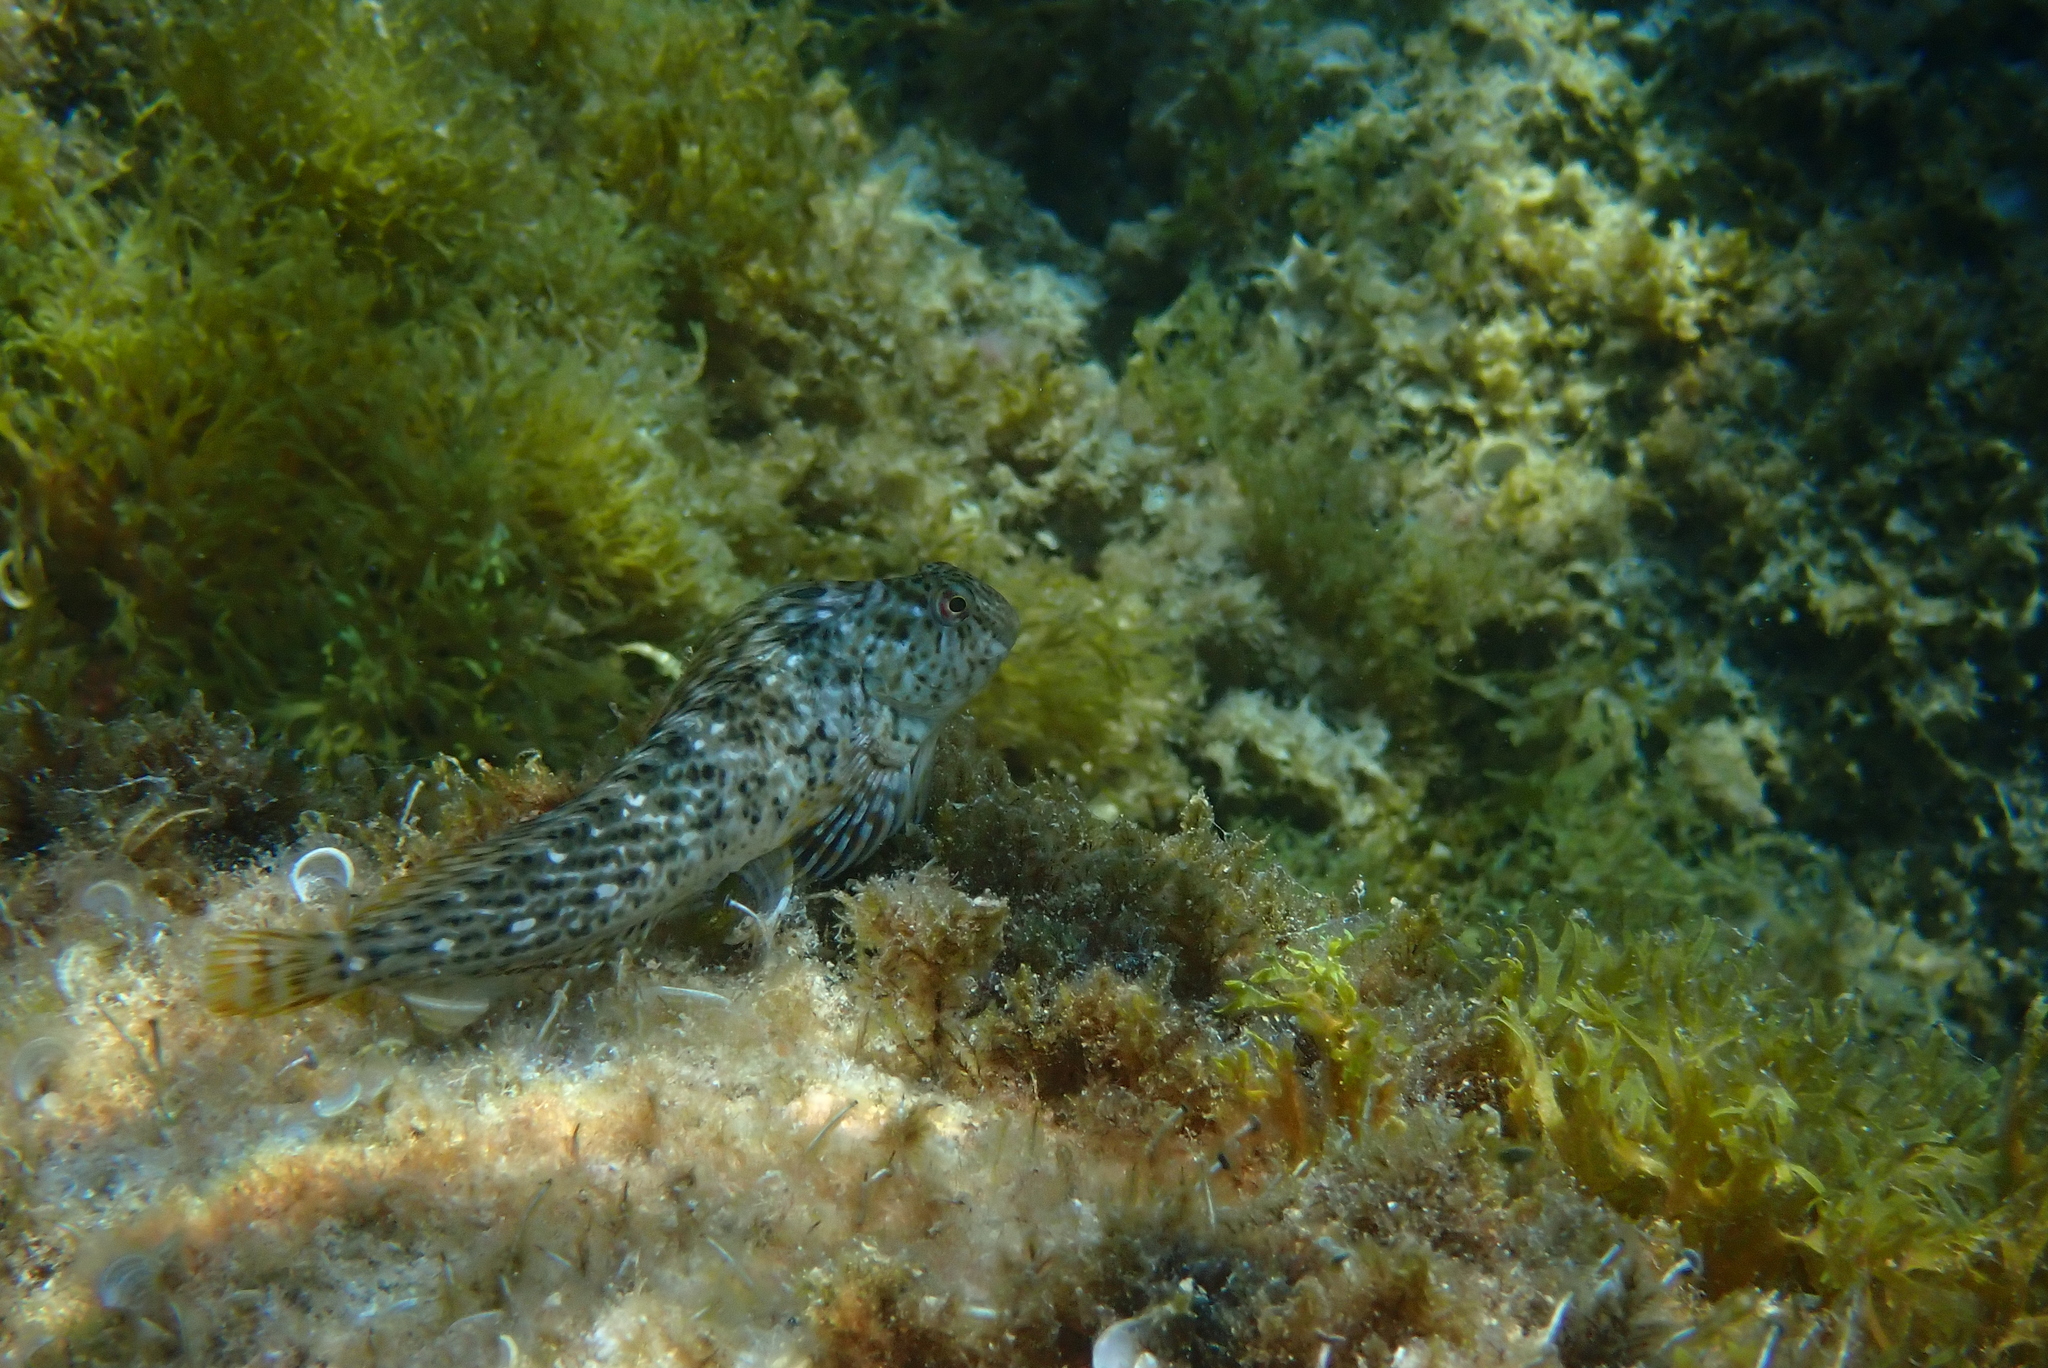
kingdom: Animalia
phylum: Chordata
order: Perciformes
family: Blenniidae
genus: Parablennius
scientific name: Parablennius sanguinolentus
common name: Black sea blenny
